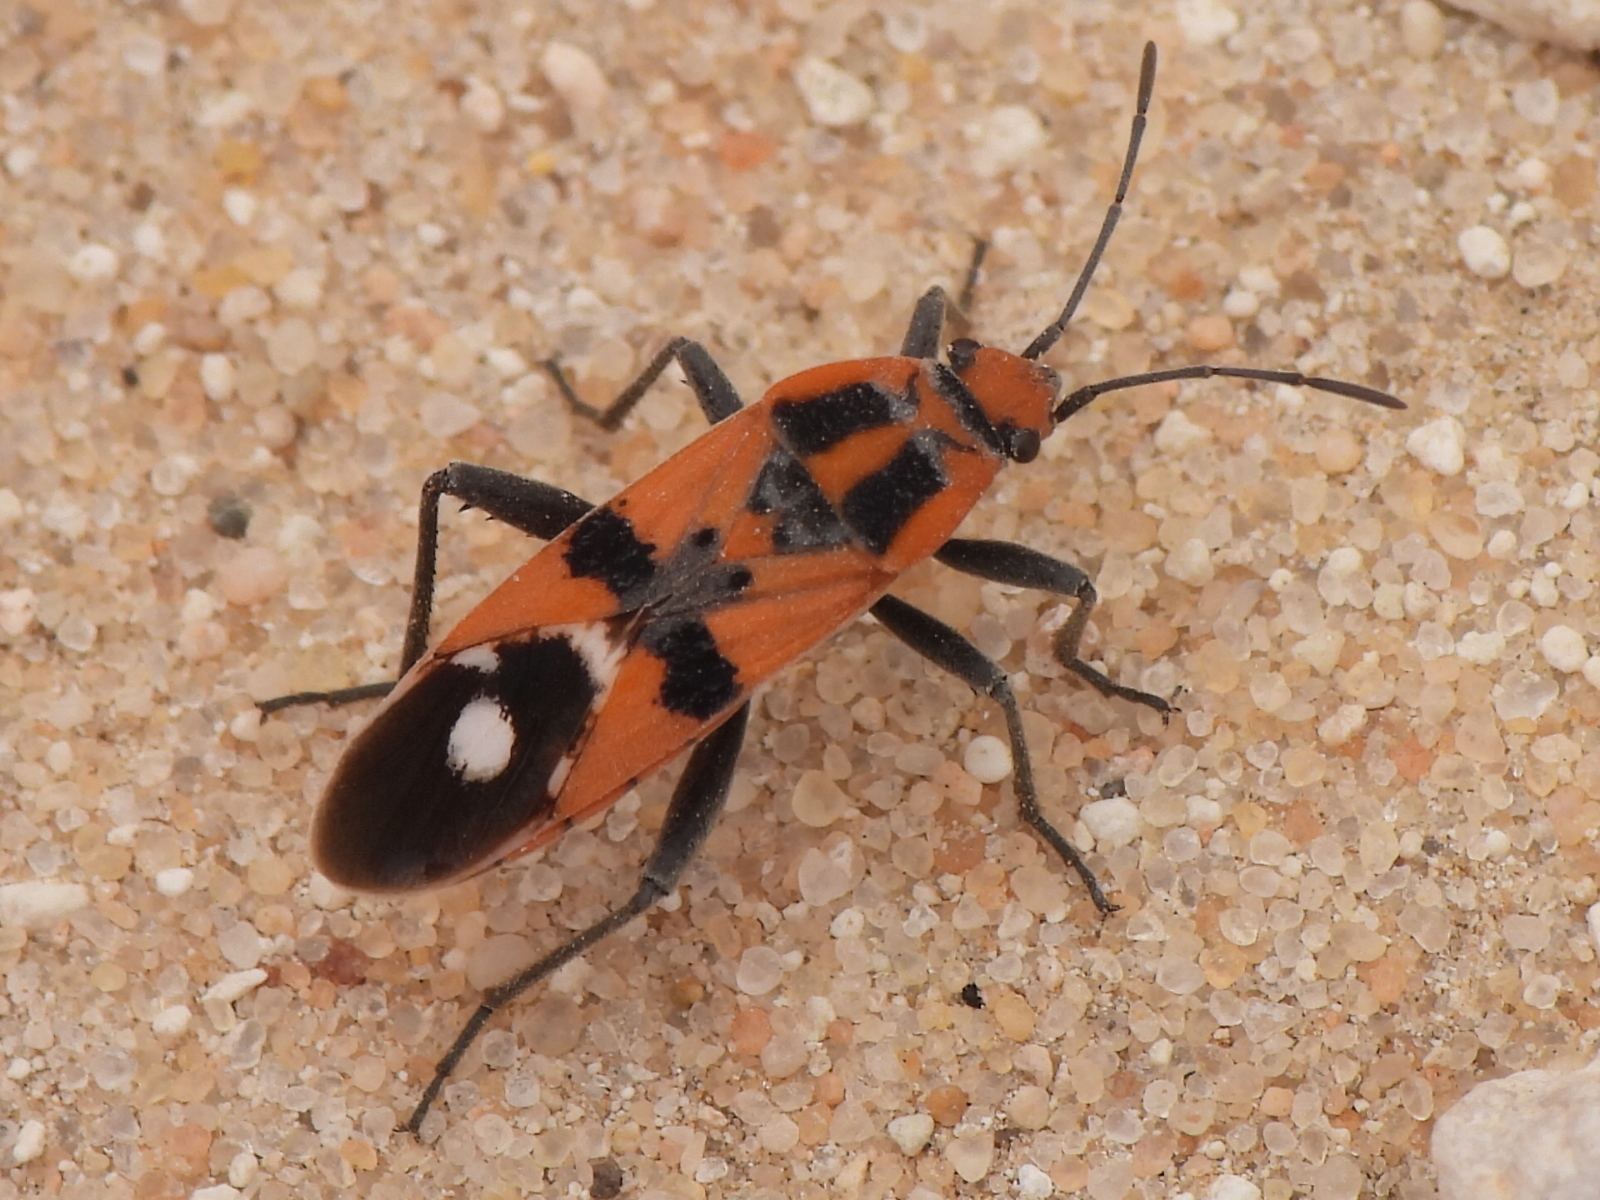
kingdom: Animalia
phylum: Arthropoda
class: Insecta
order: Hemiptera
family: Lygaeidae
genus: Spilostethus
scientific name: Spilostethus longulus
